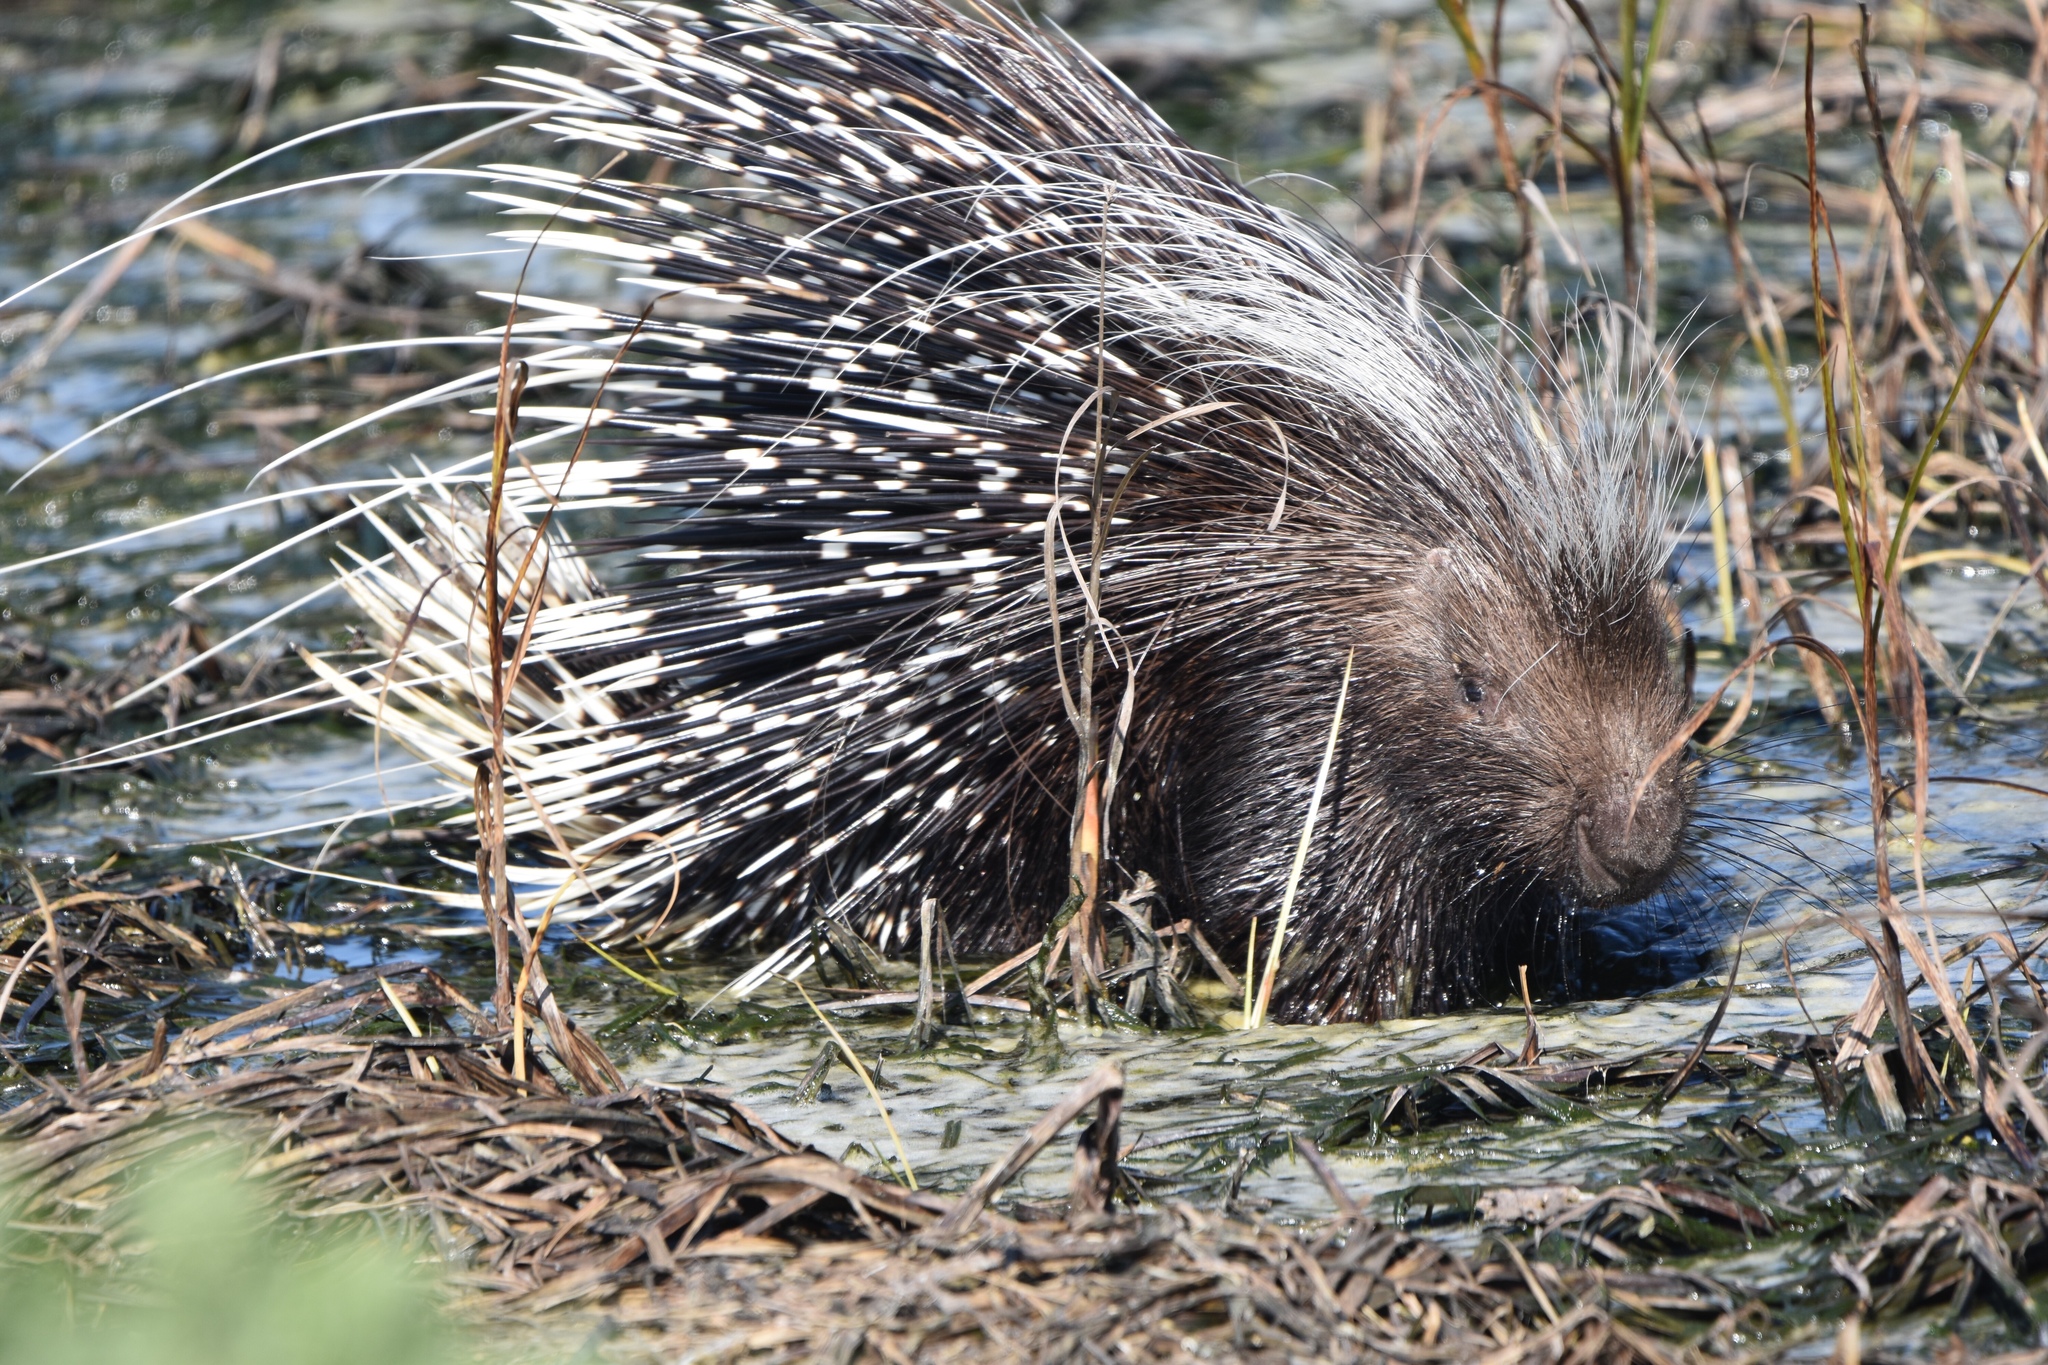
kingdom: Animalia
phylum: Chordata
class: Mammalia
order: Rodentia
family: Hystricidae
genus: Hystrix
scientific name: Hystrix africaeaustralis
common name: Cape porcupine
